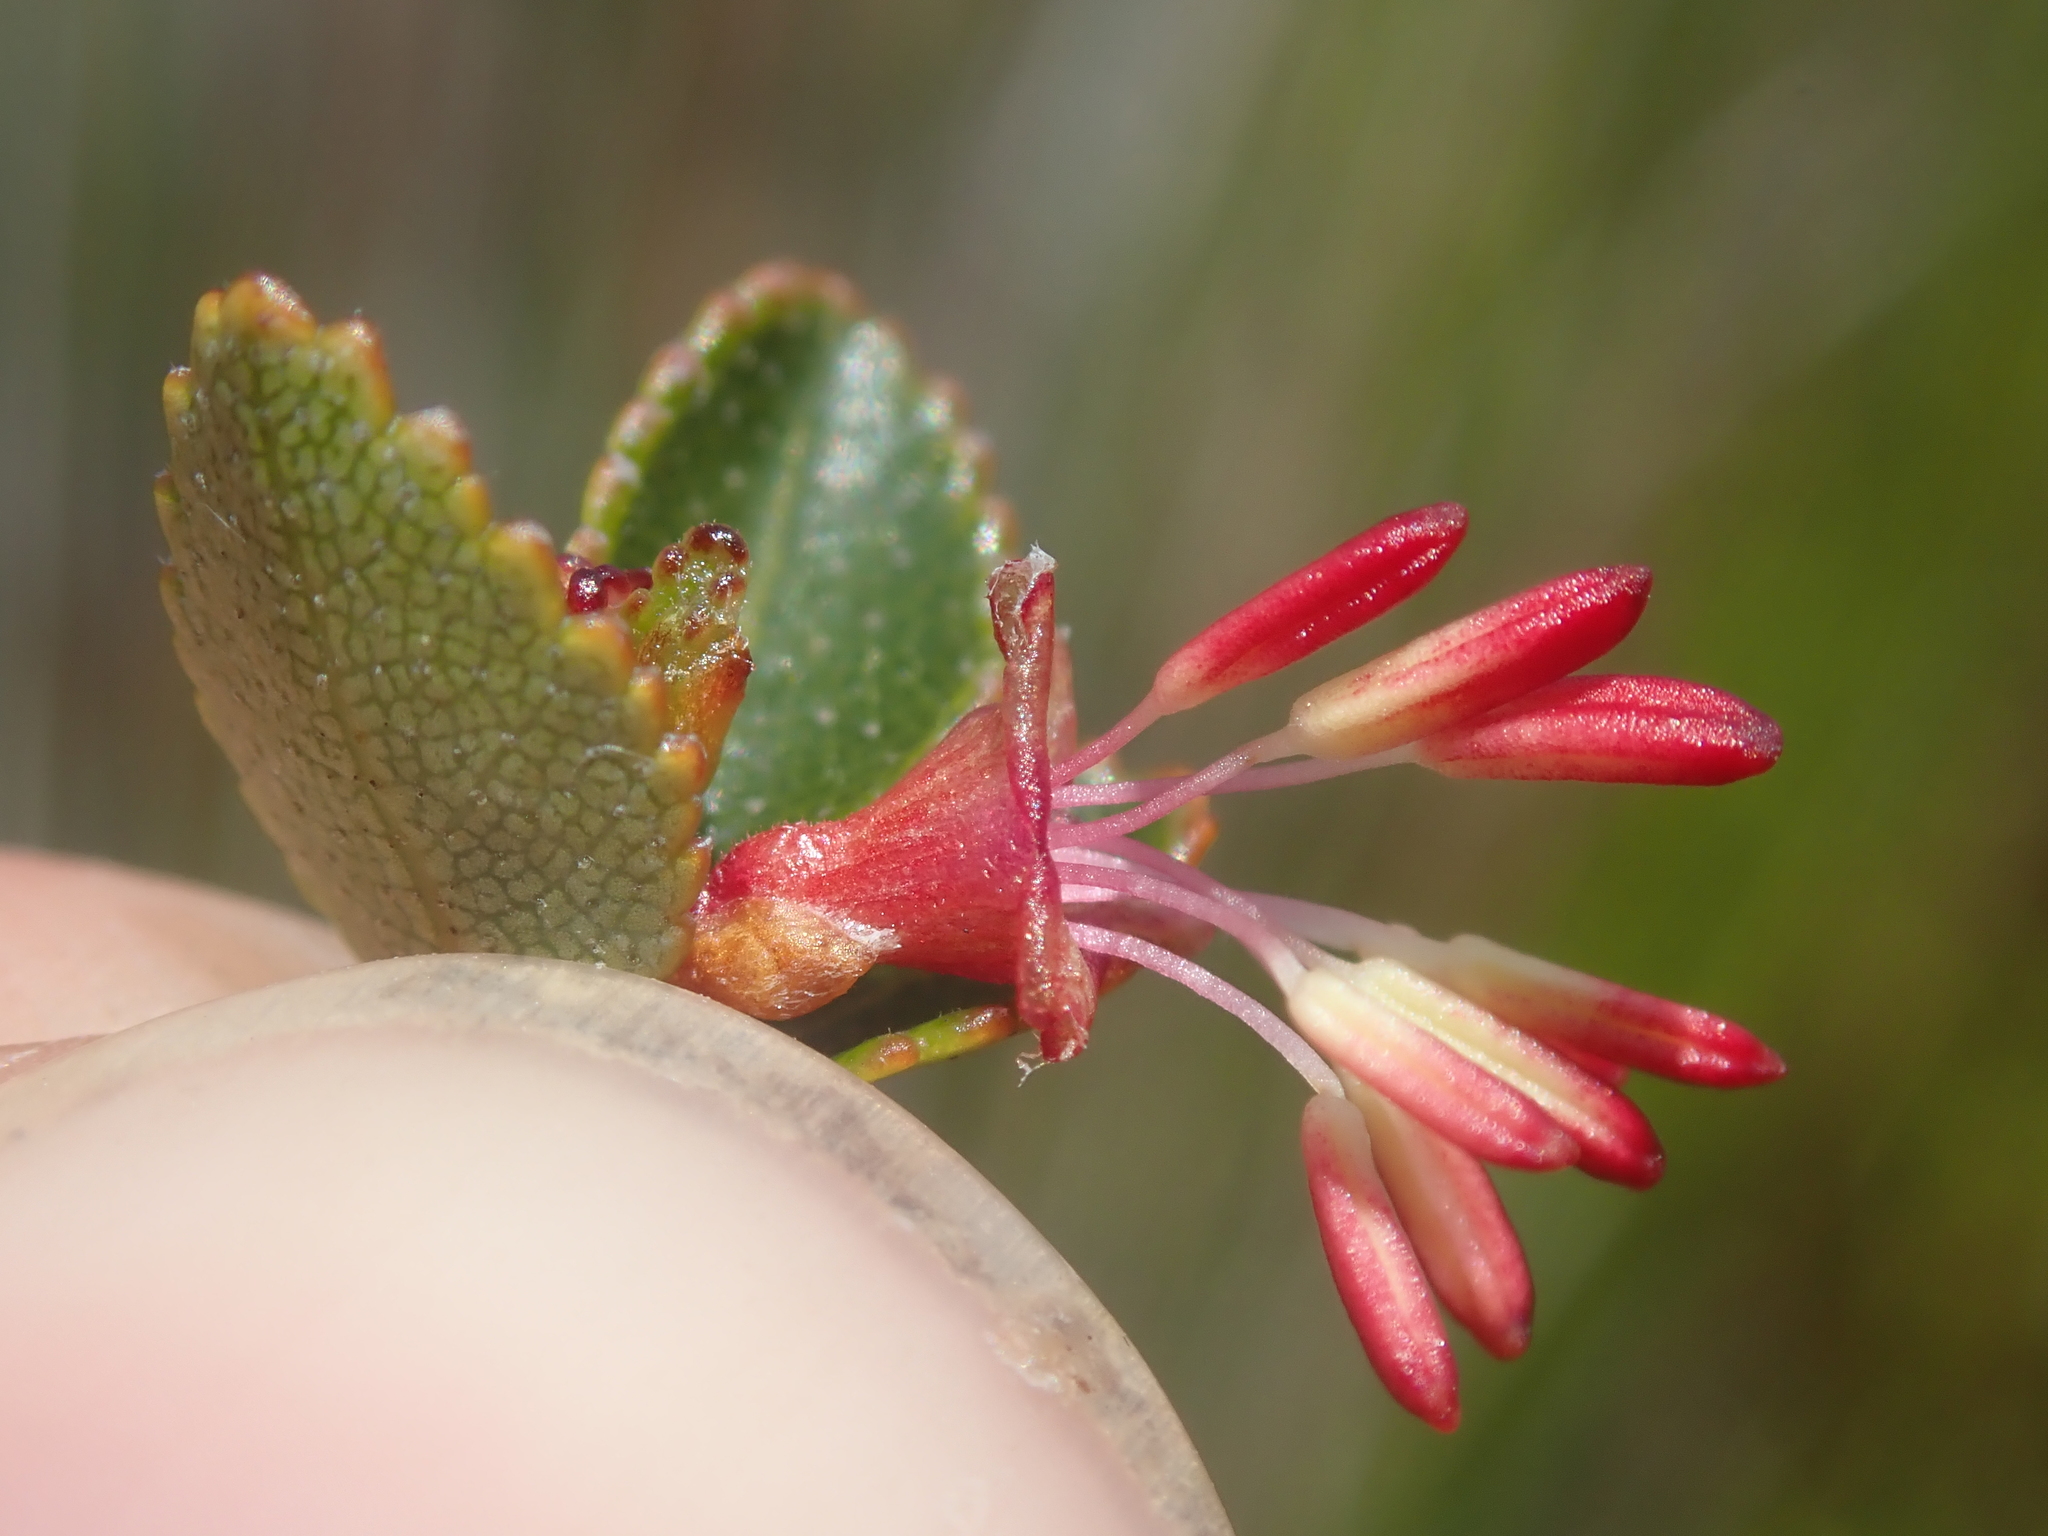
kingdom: Plantae
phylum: Tracheophyta
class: Magnoliopsida
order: Fagales
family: Nothofagaceae
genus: Nothofagus
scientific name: Nothofagus betuloides
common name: Magellan's beech
